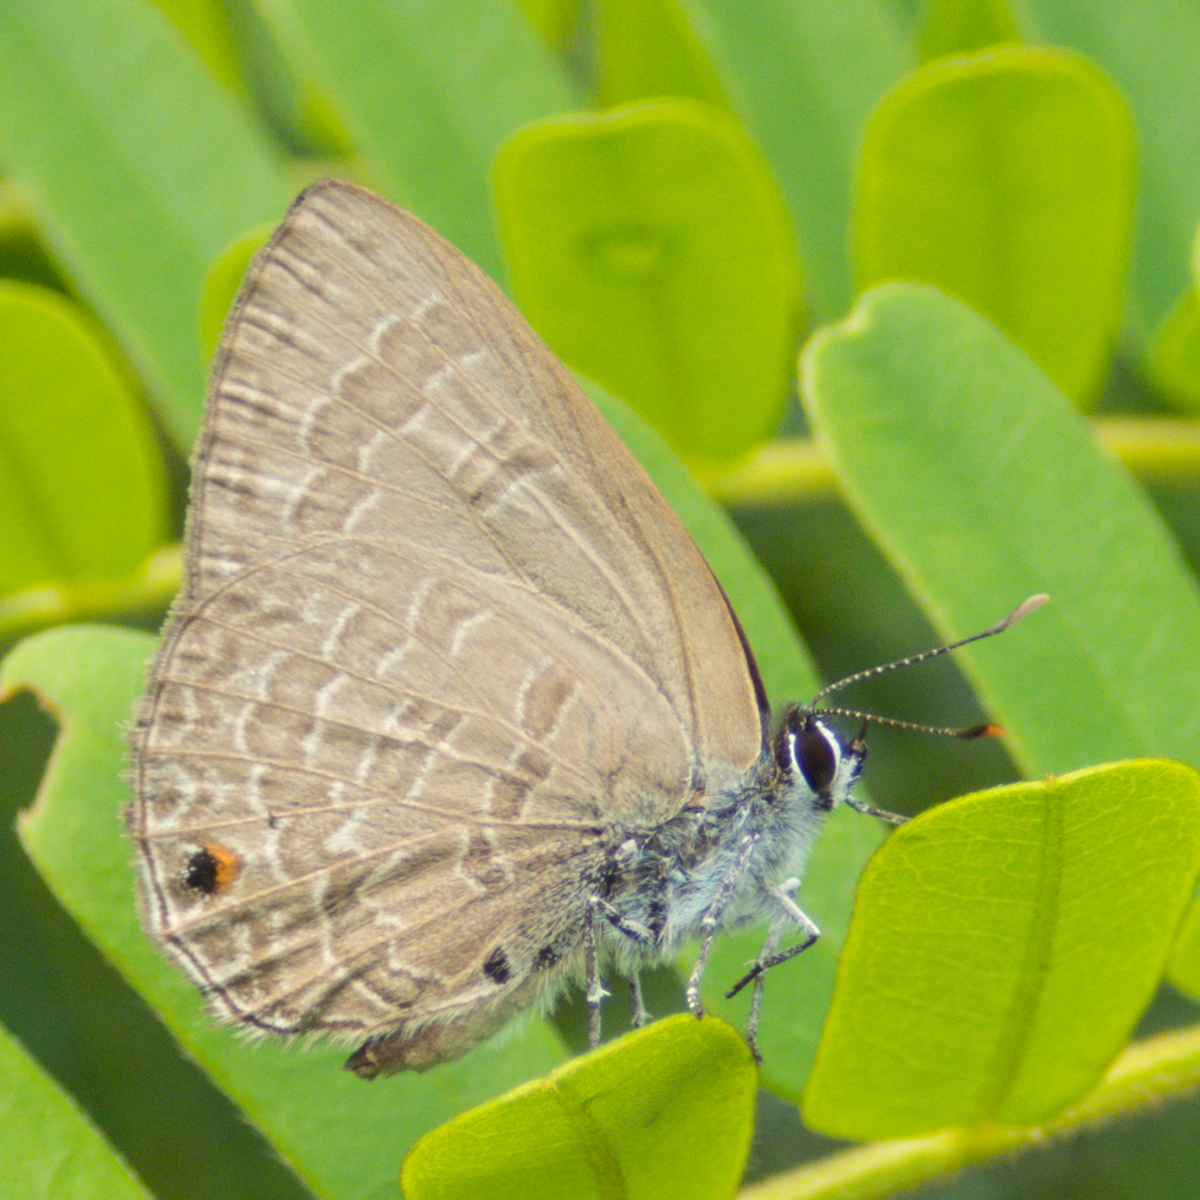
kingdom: Animalia
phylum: Arthropoda
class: Insecta
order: Lepidoptera
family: Lycaenidae
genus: Anthene
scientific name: Anthene emolus
